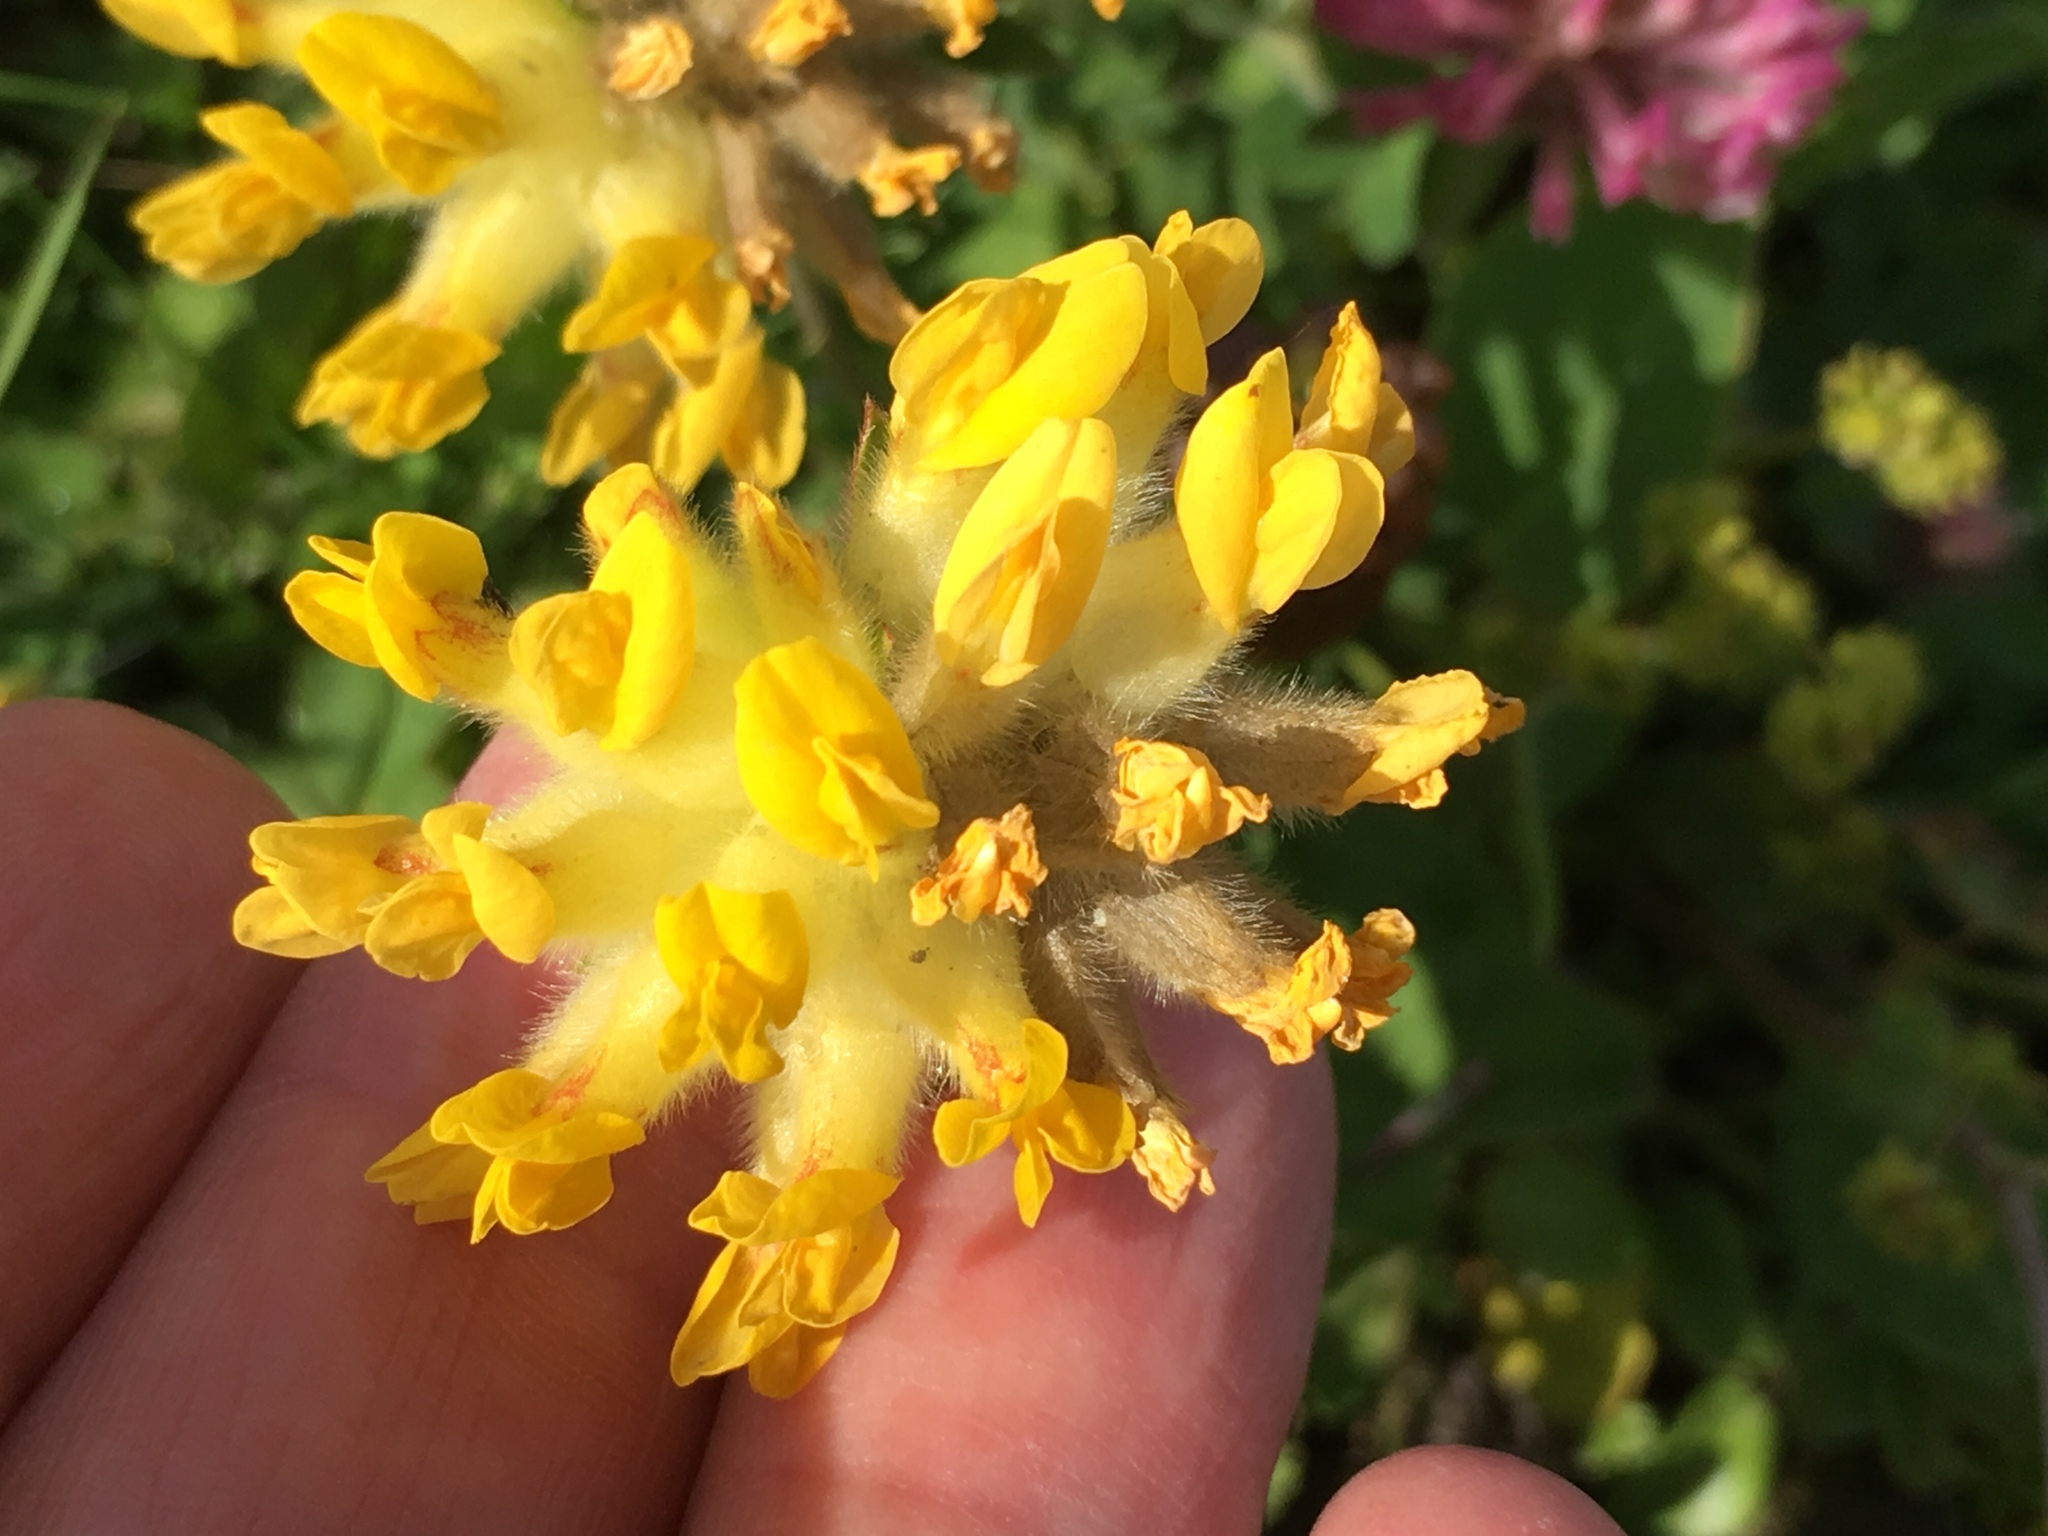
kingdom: Plantae
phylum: Tracheophyta
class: Magnoliopsida
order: Fabales
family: Fabaceae
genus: Anthyllis
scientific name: Anthyllis vulneraria
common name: Kidney vetch
